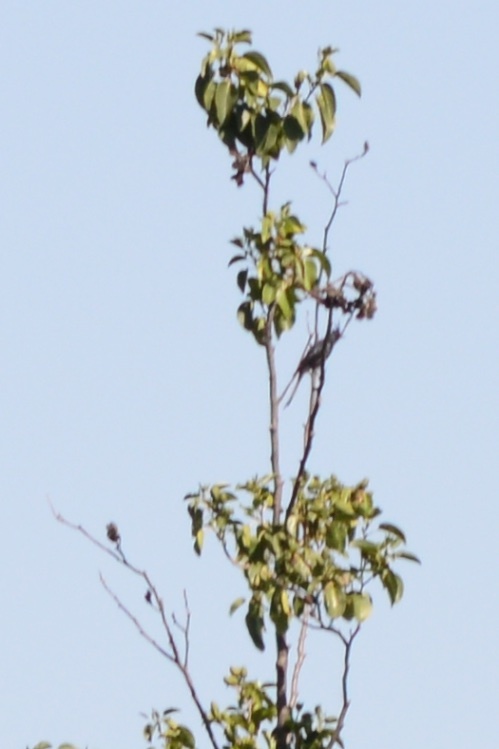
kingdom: Animalia
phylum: Chordata
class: Aves
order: Passeriformes
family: Ptilogonatidae
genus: Phainopepla
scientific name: Phainopepla nitens
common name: Phainopepla
